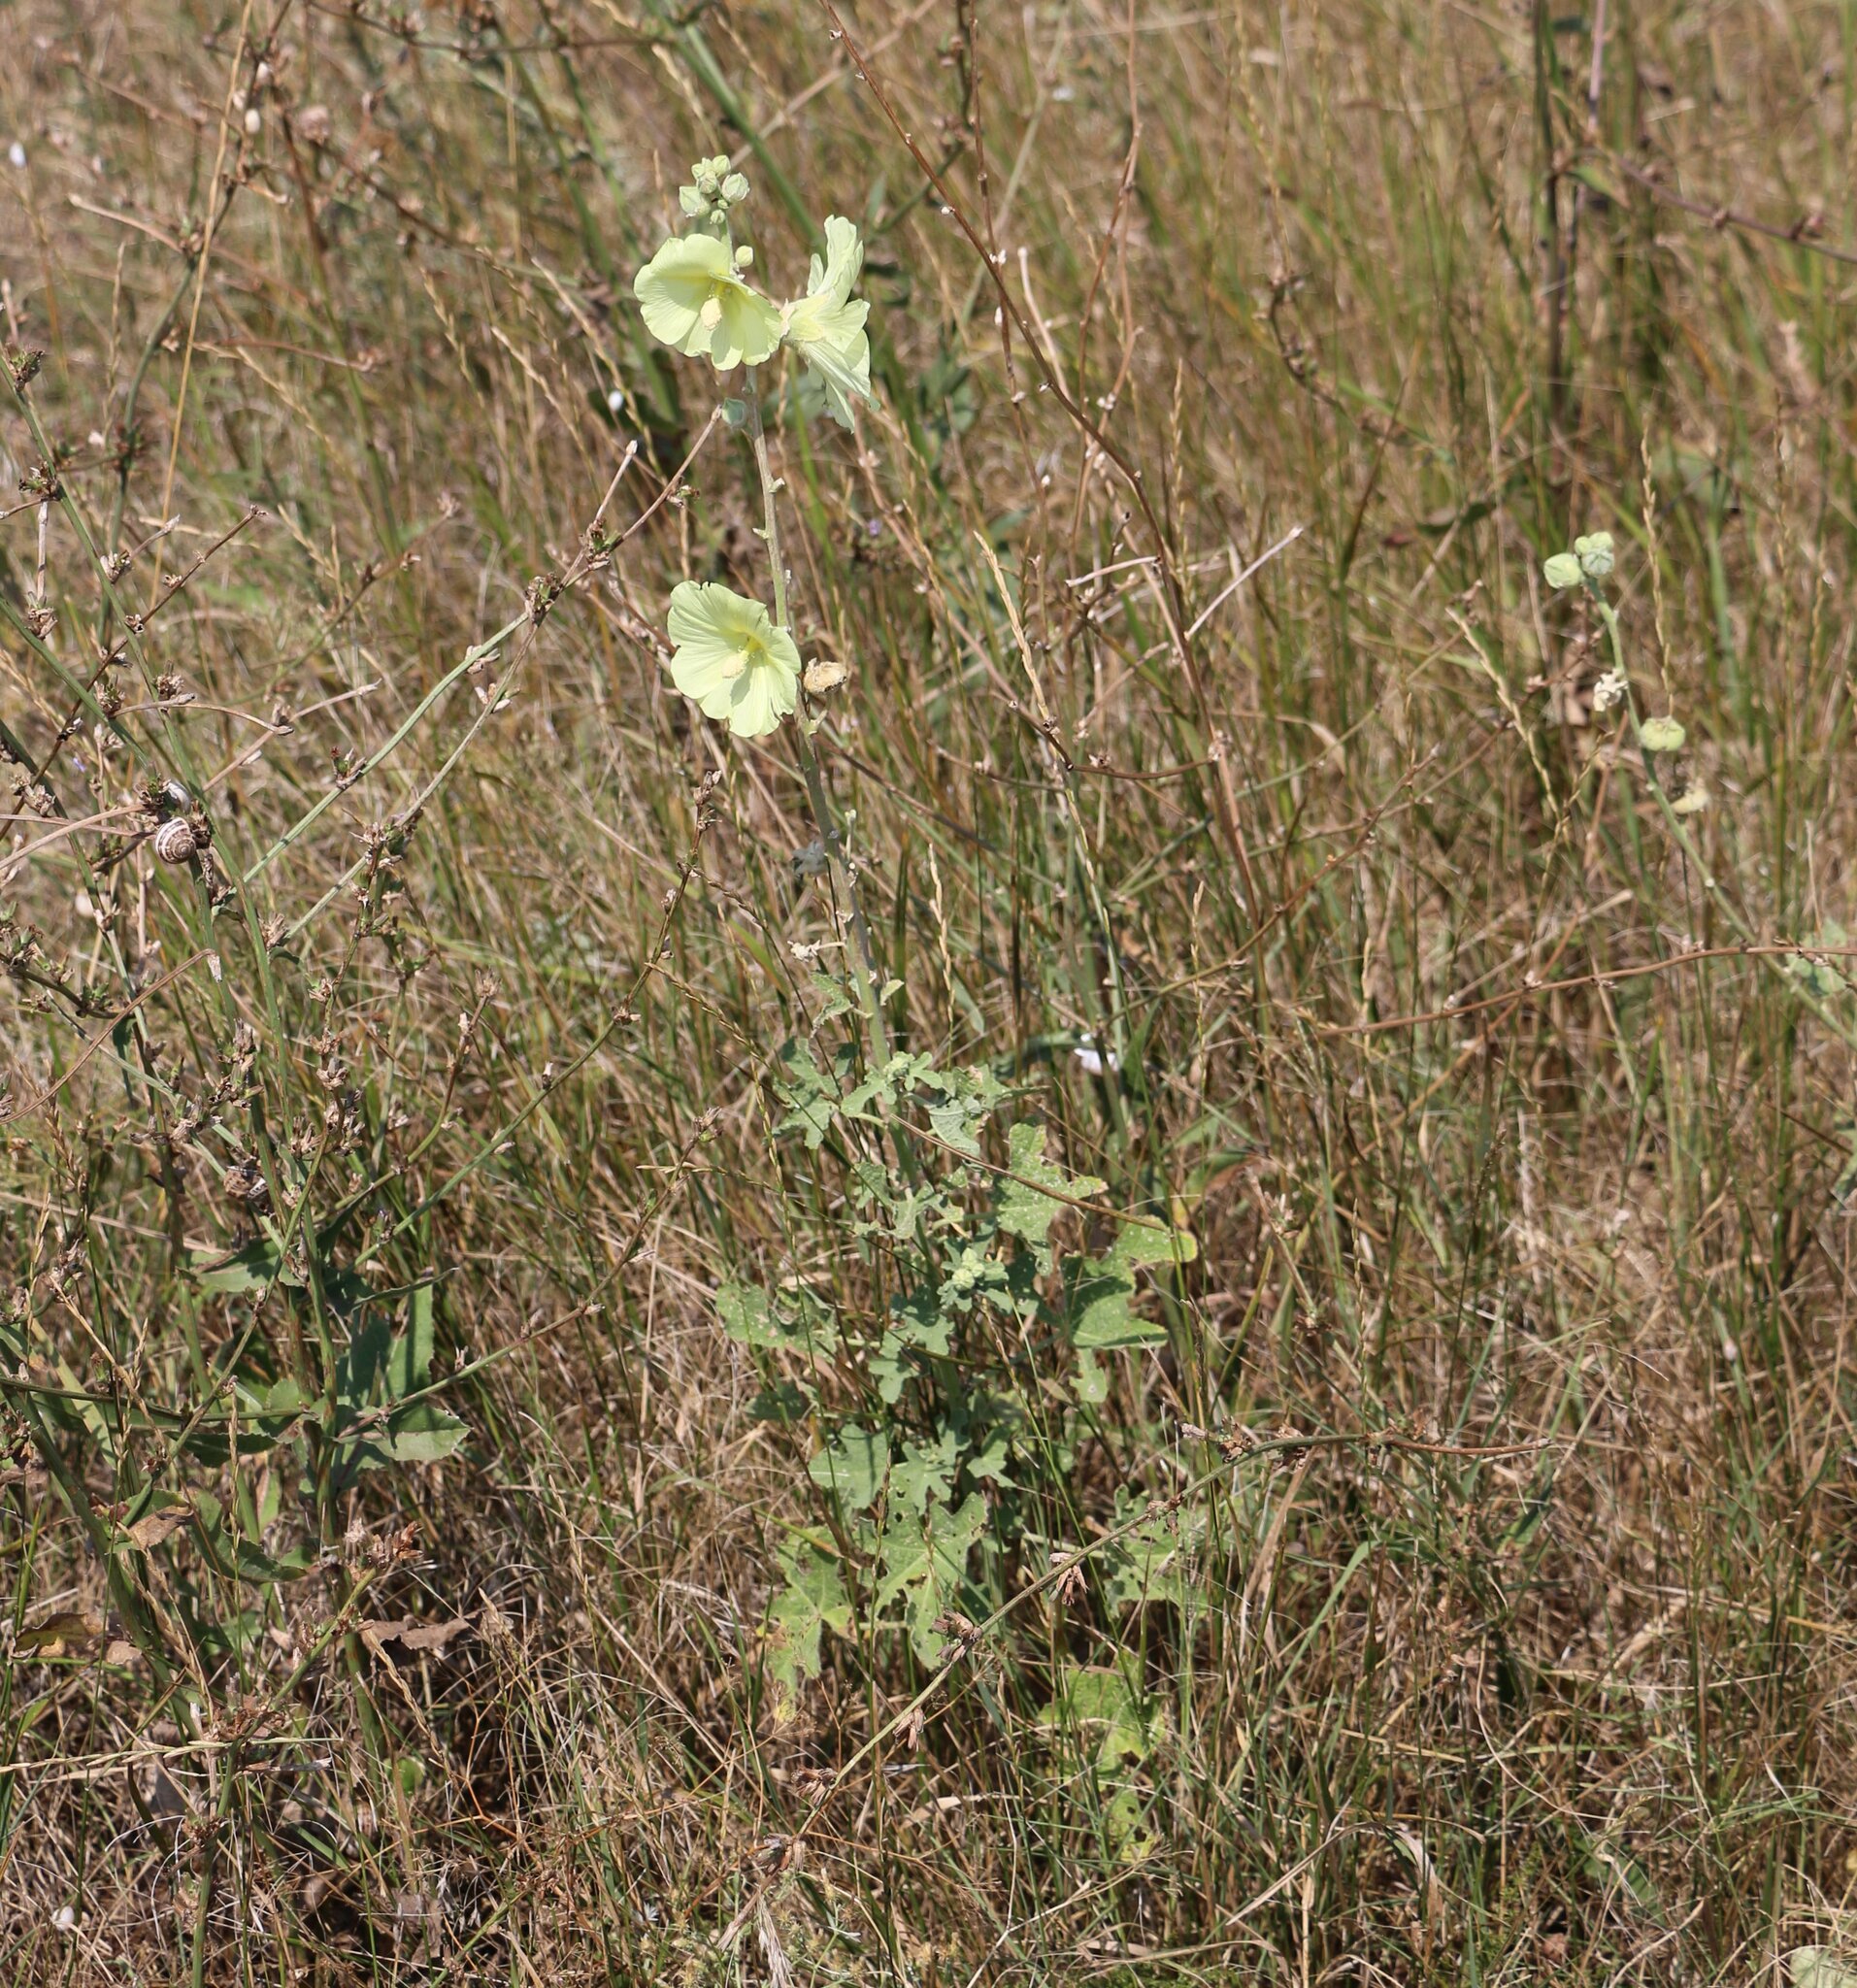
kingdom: Plantae
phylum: Tracheophyta
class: Magnoliopsida
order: Malvales
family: Malvaceae
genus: Alcea
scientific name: Alcea rugosa
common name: Russian hollyhock
